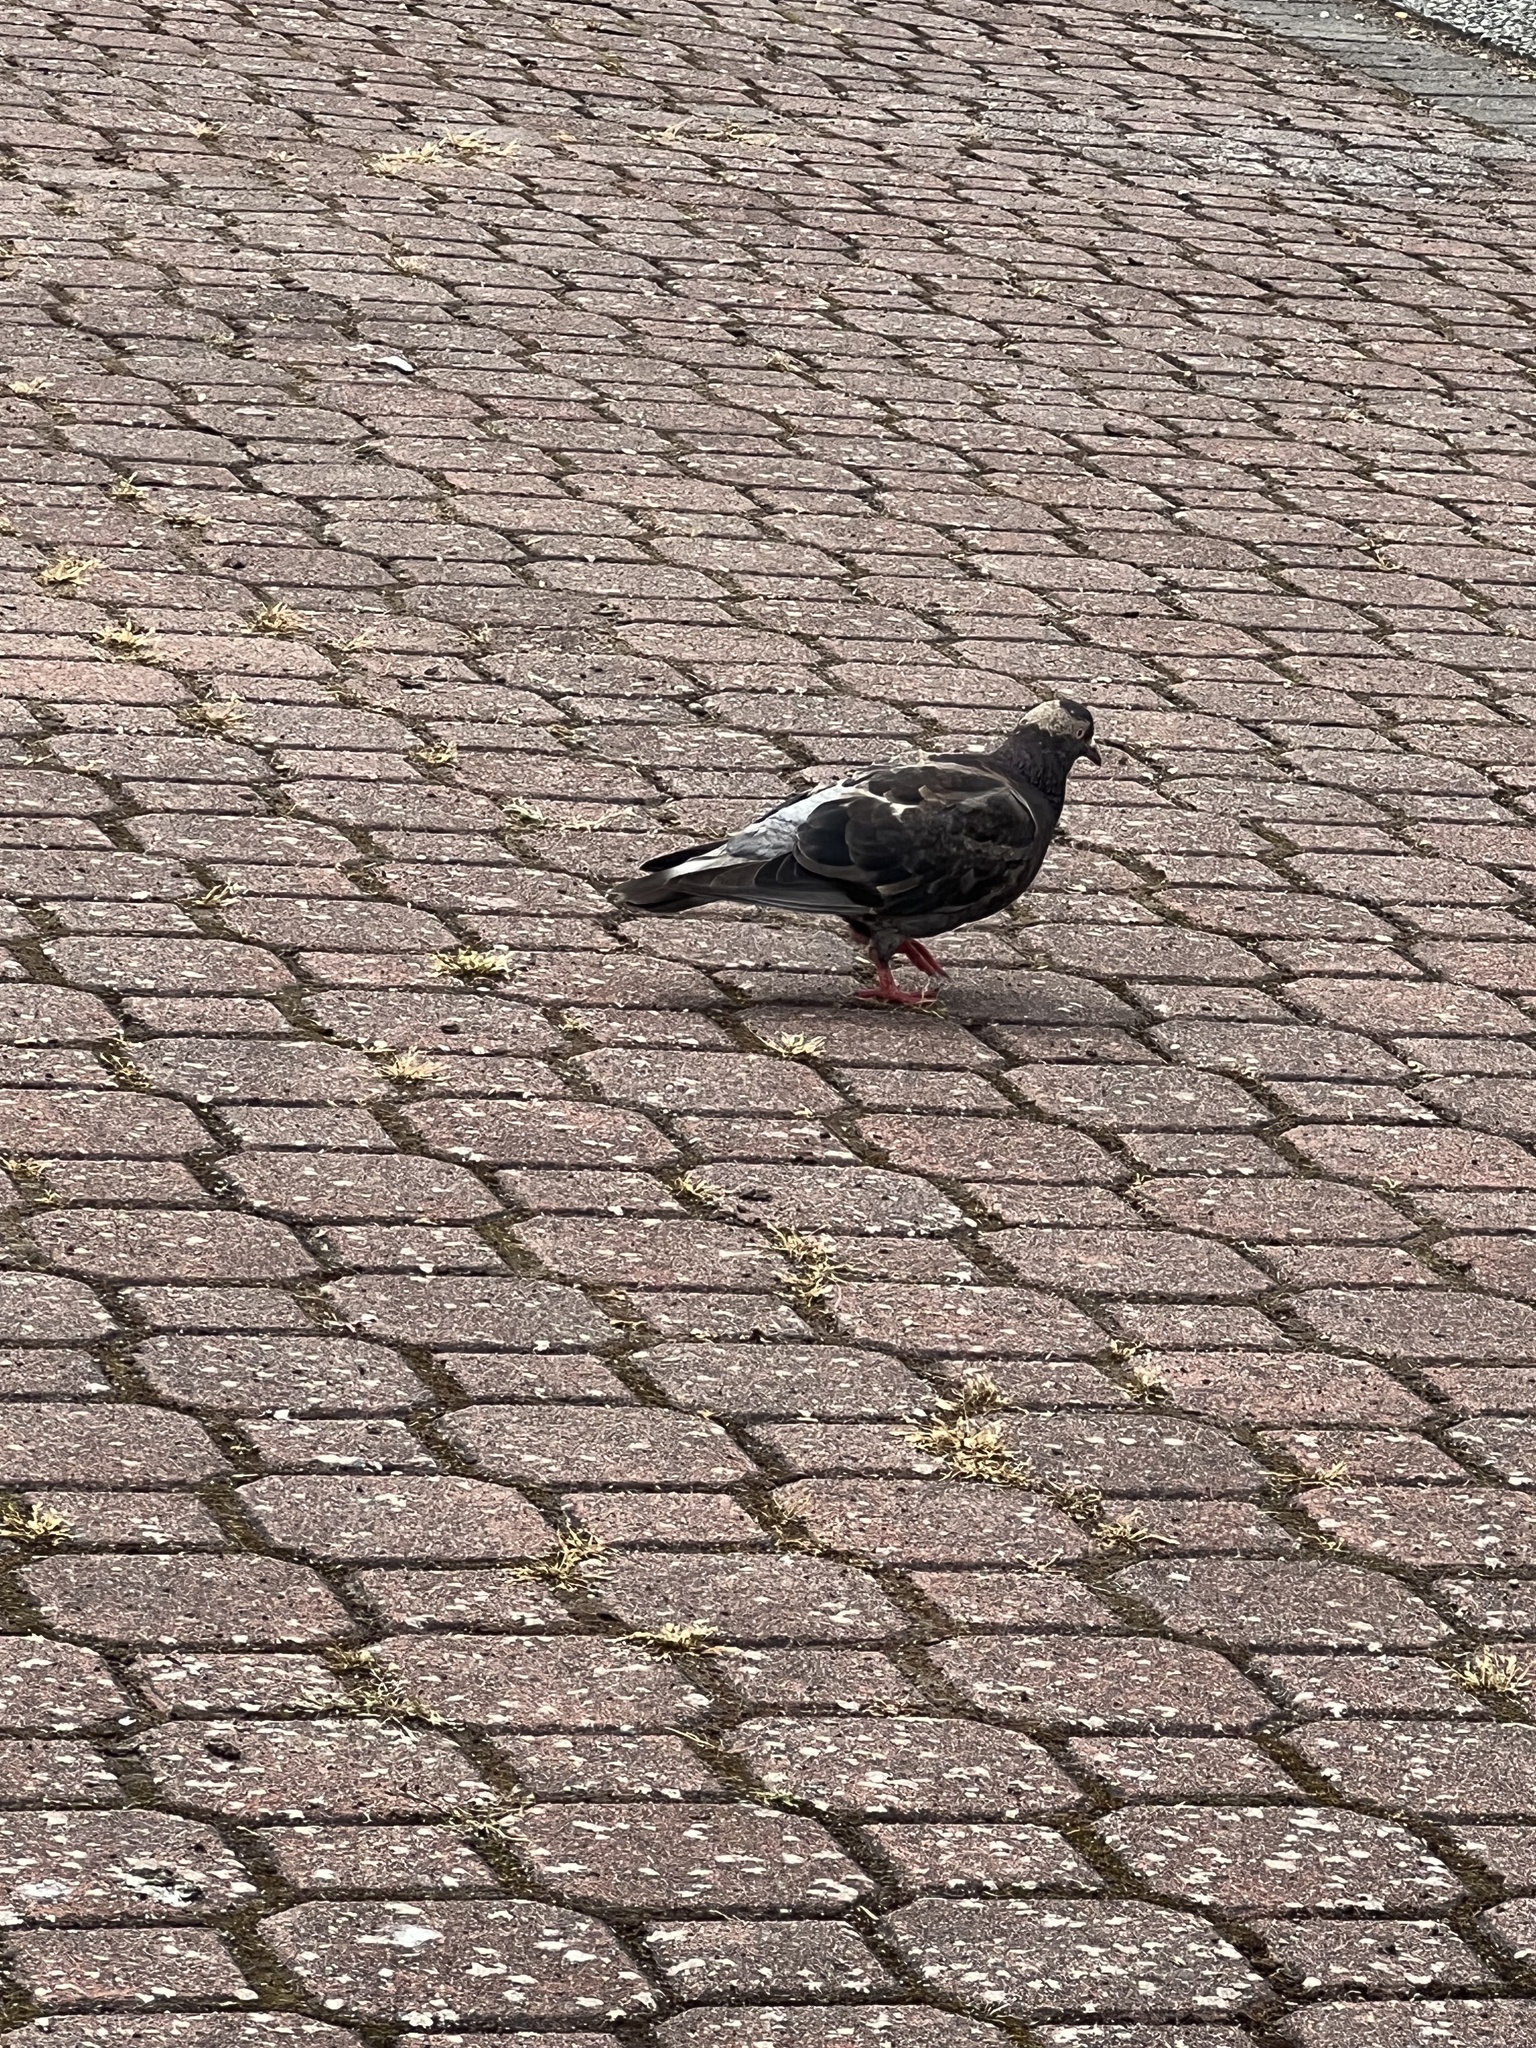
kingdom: Animalia
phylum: Chordata
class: Aves
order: Columbiformes
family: Columbidae
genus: Columba
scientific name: Columba livia
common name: Rock pigeon
